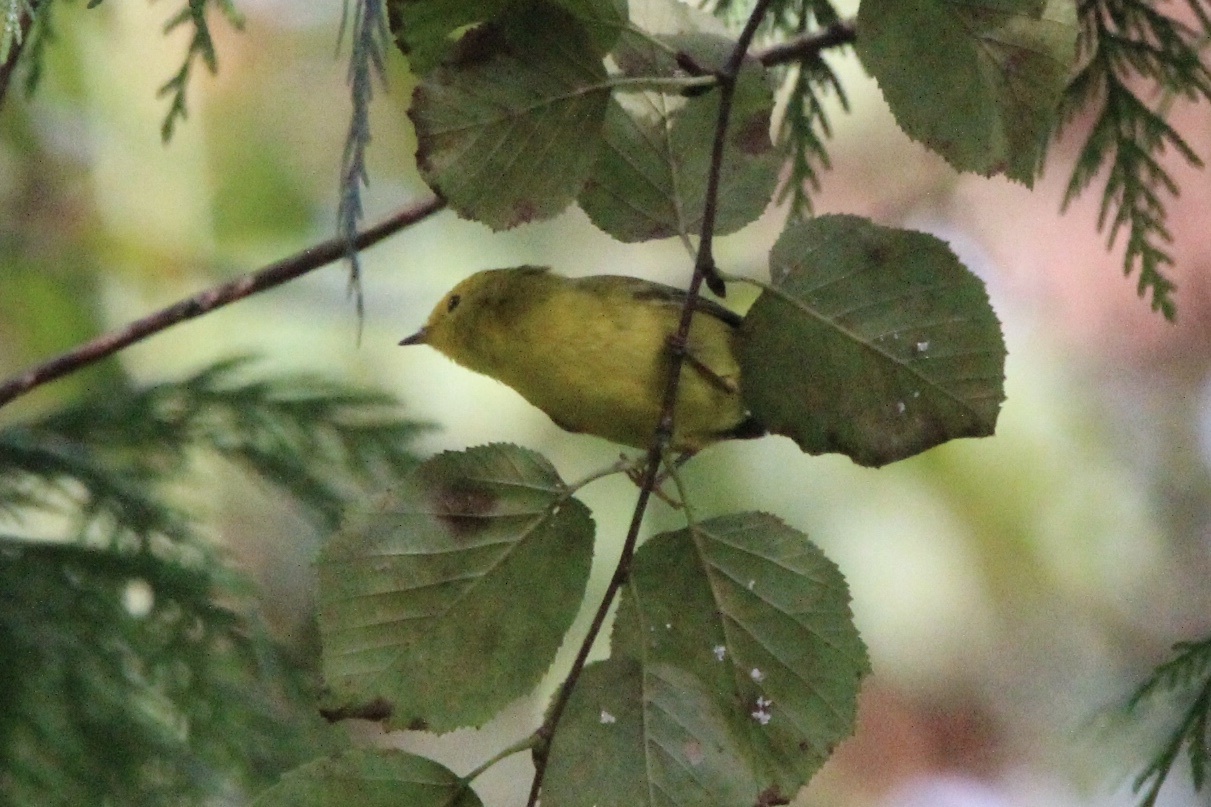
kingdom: Animalia
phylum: Chordata
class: Aves
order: Passeriformes
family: Parulidae
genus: Cardellina
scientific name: Cardellina pusilla
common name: Wilson's warbler
